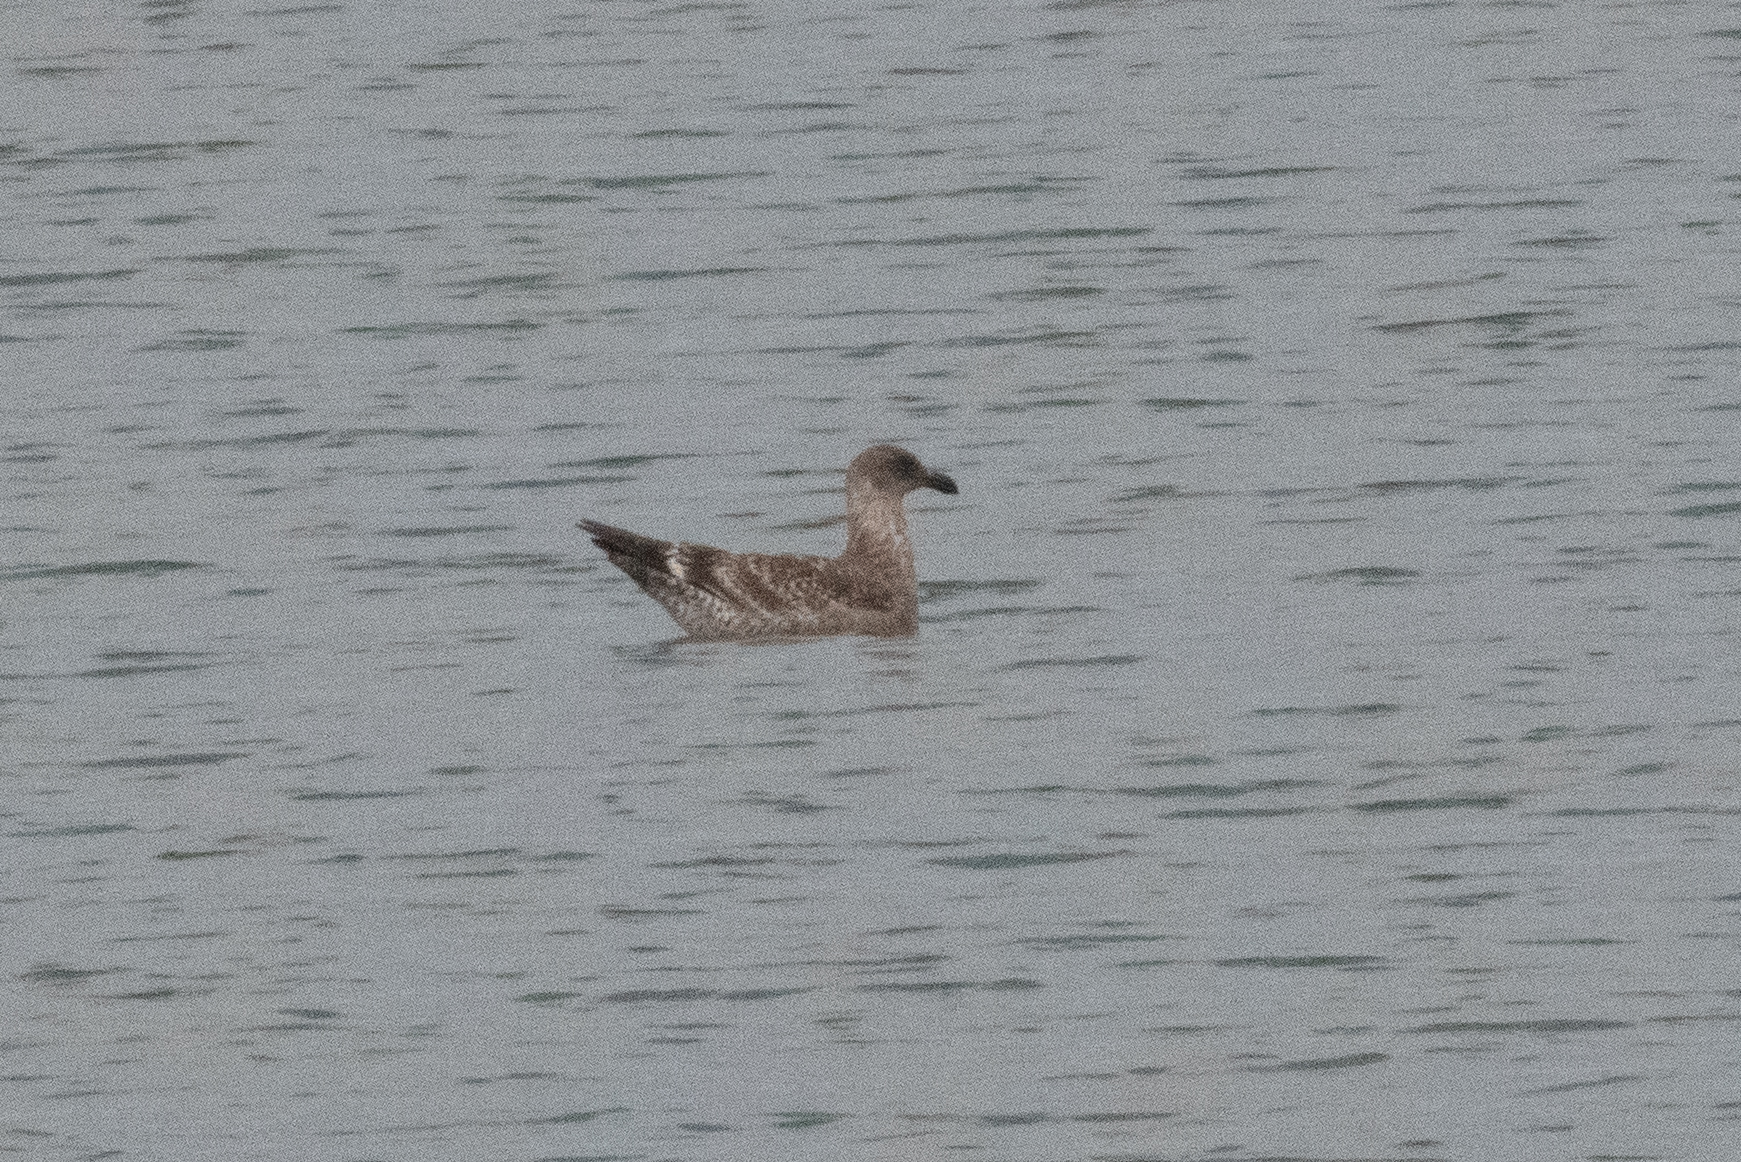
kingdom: Animalia
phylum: Chordata
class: Aves
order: Charadriiformes
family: Laridae
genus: Larus
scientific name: Larus occidentalis
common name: Western gull
